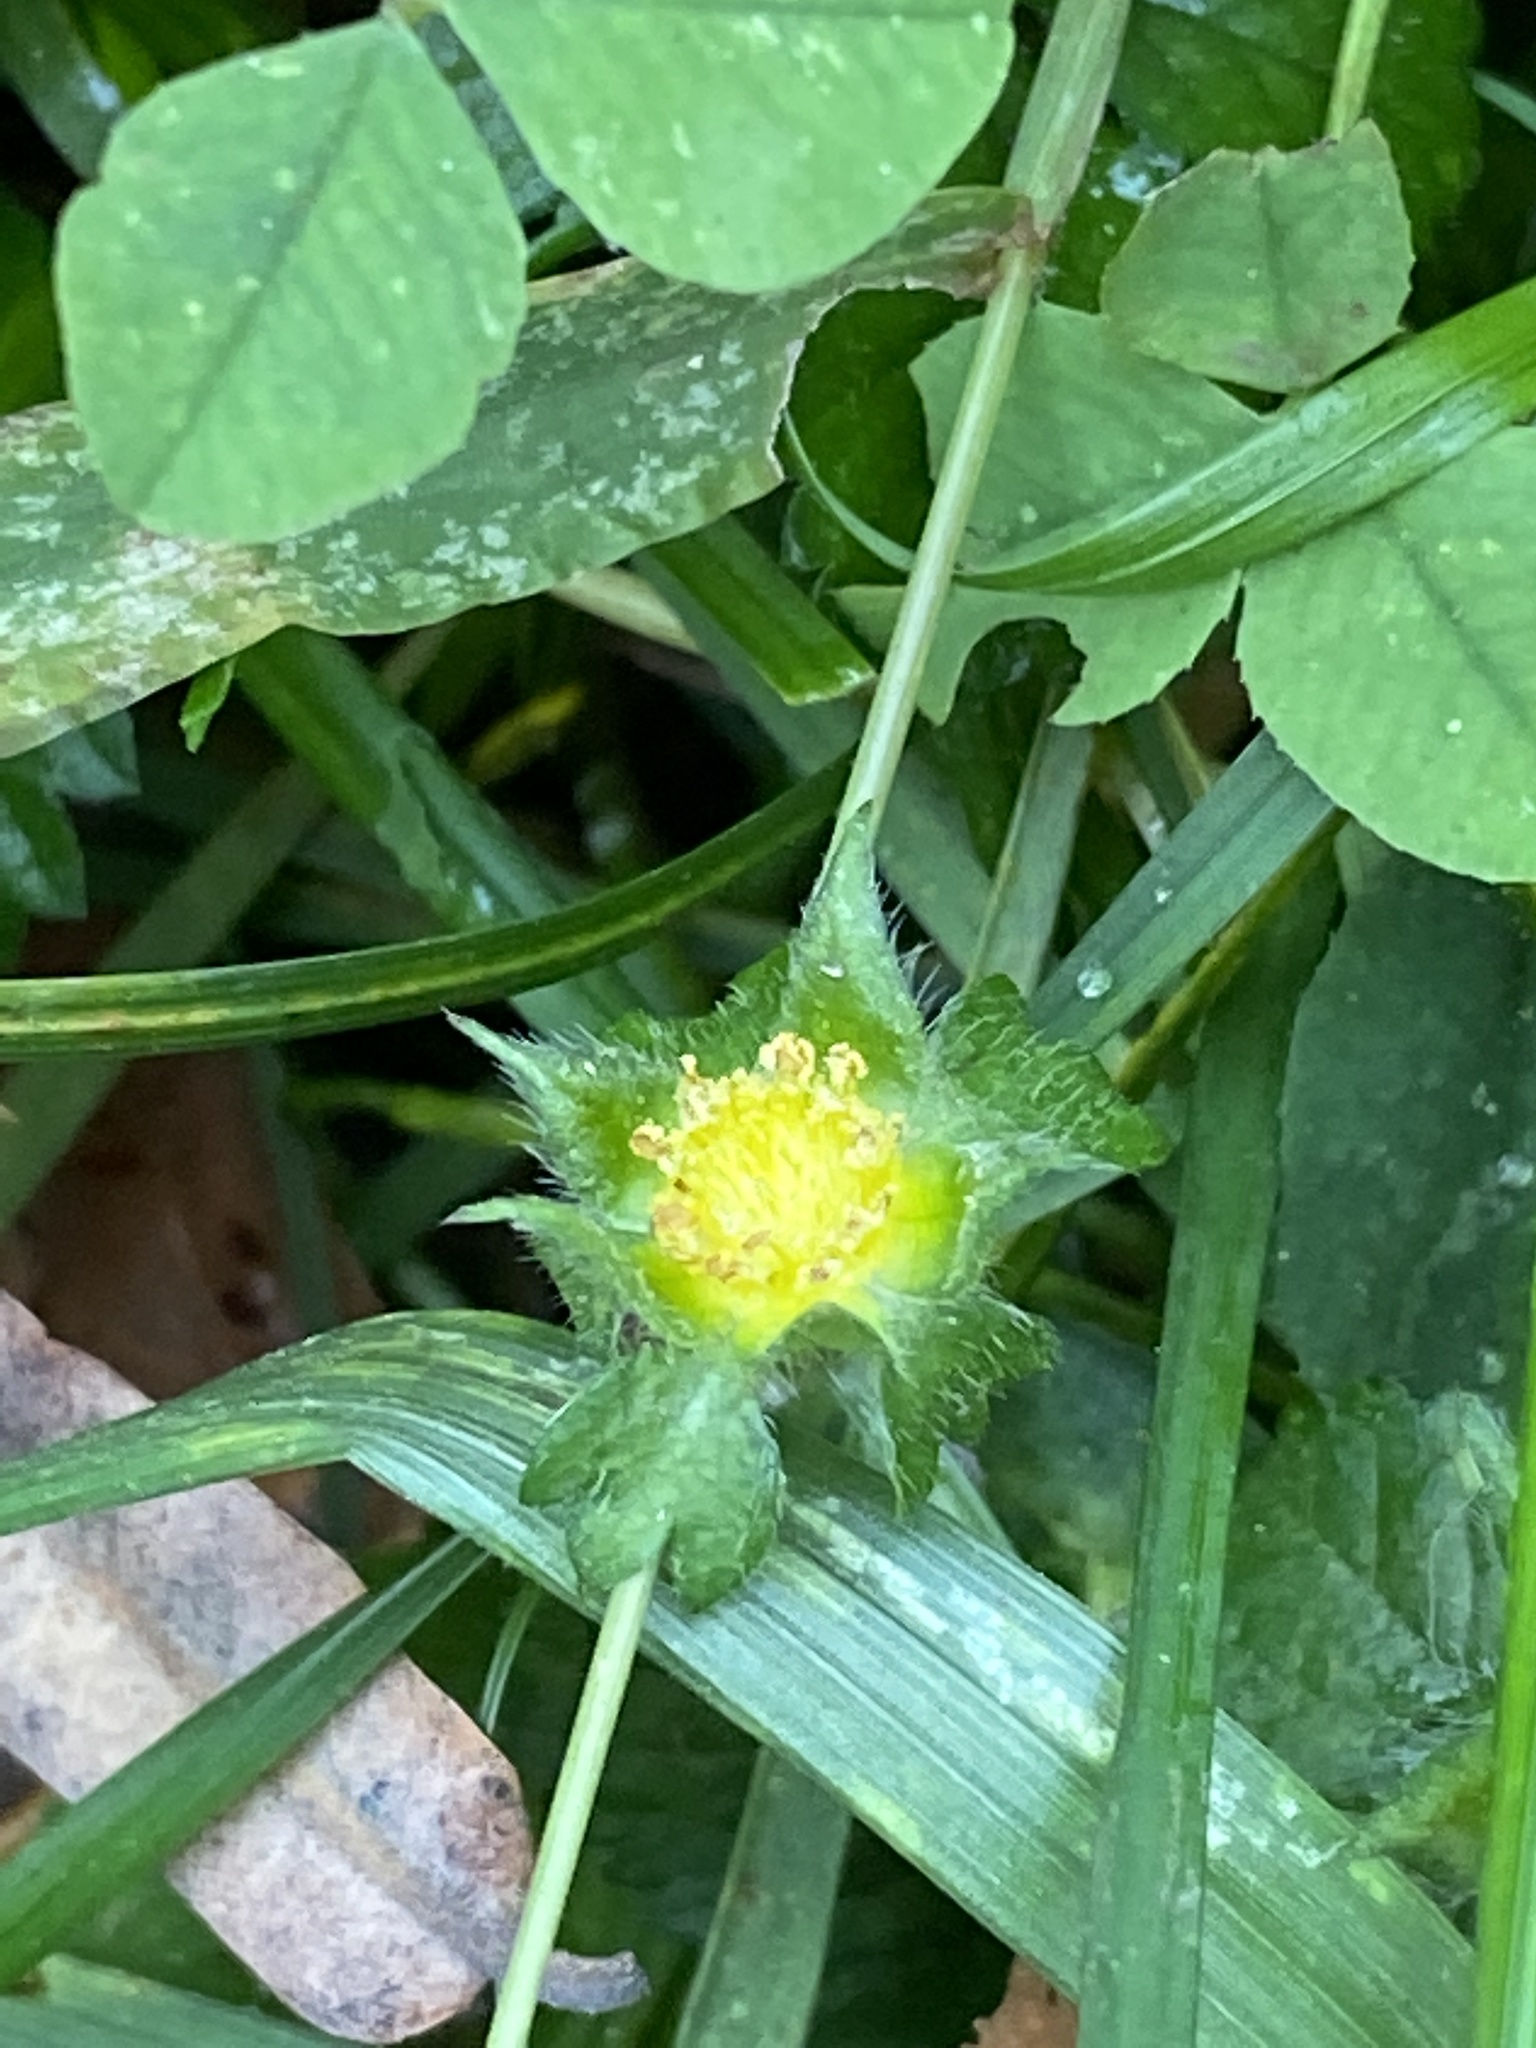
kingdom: Plantae
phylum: Tracheophyta
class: Magnoliopsida
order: Rosales
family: Rosaceae
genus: Potentilla
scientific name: Potentilla indica
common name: Yellow-flowered strawberry
